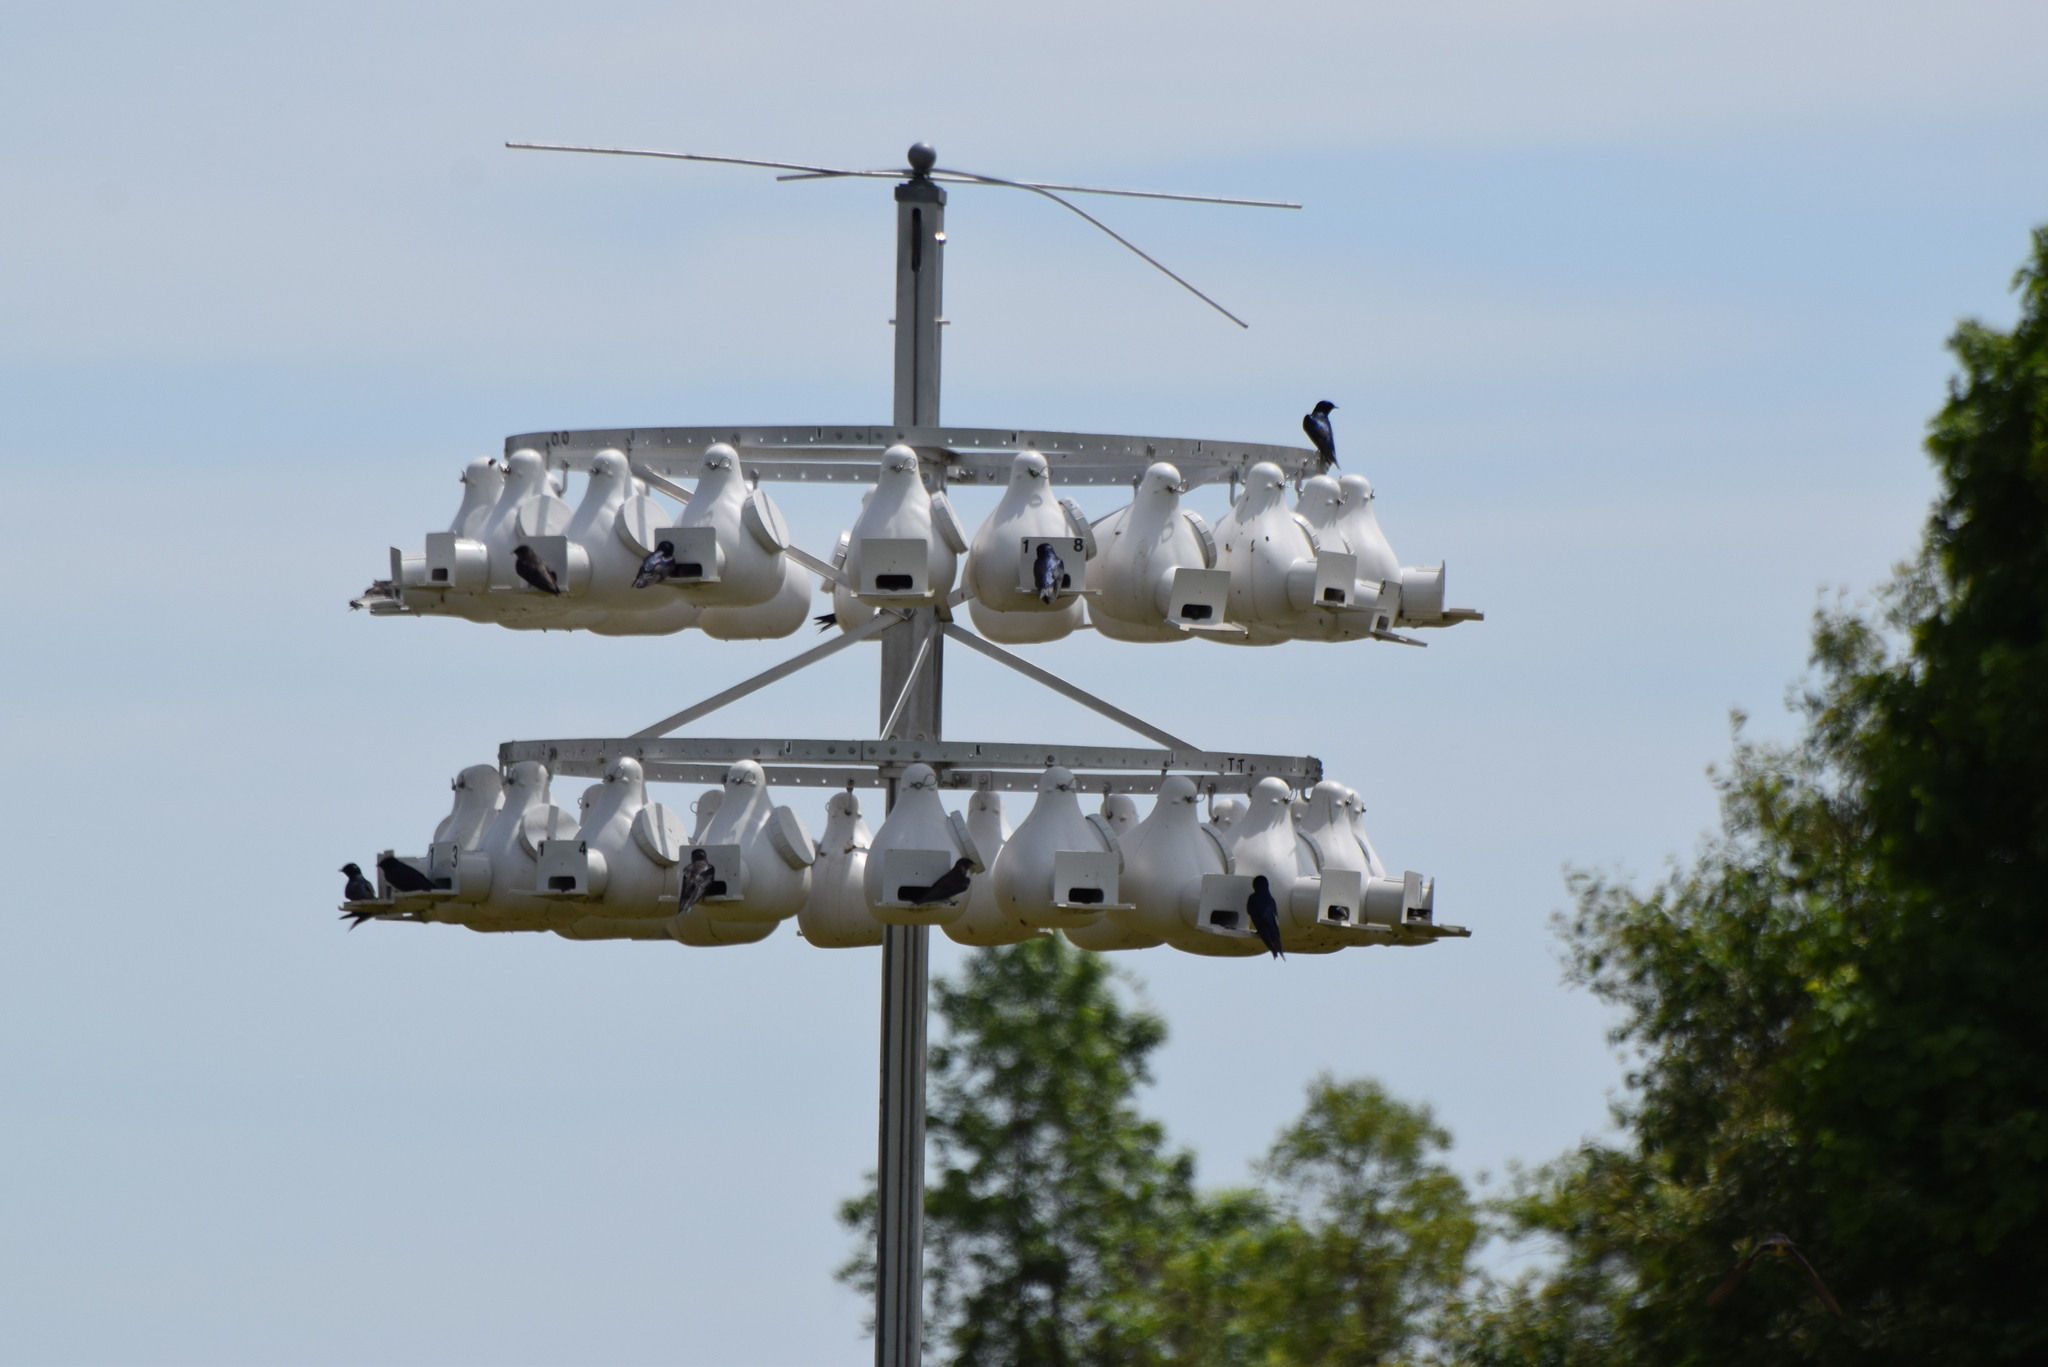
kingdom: Animalia
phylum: Chordata
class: Aves
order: Passeriformes
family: Hirundinidae
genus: Progne
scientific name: Progne subis
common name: Purple martin
